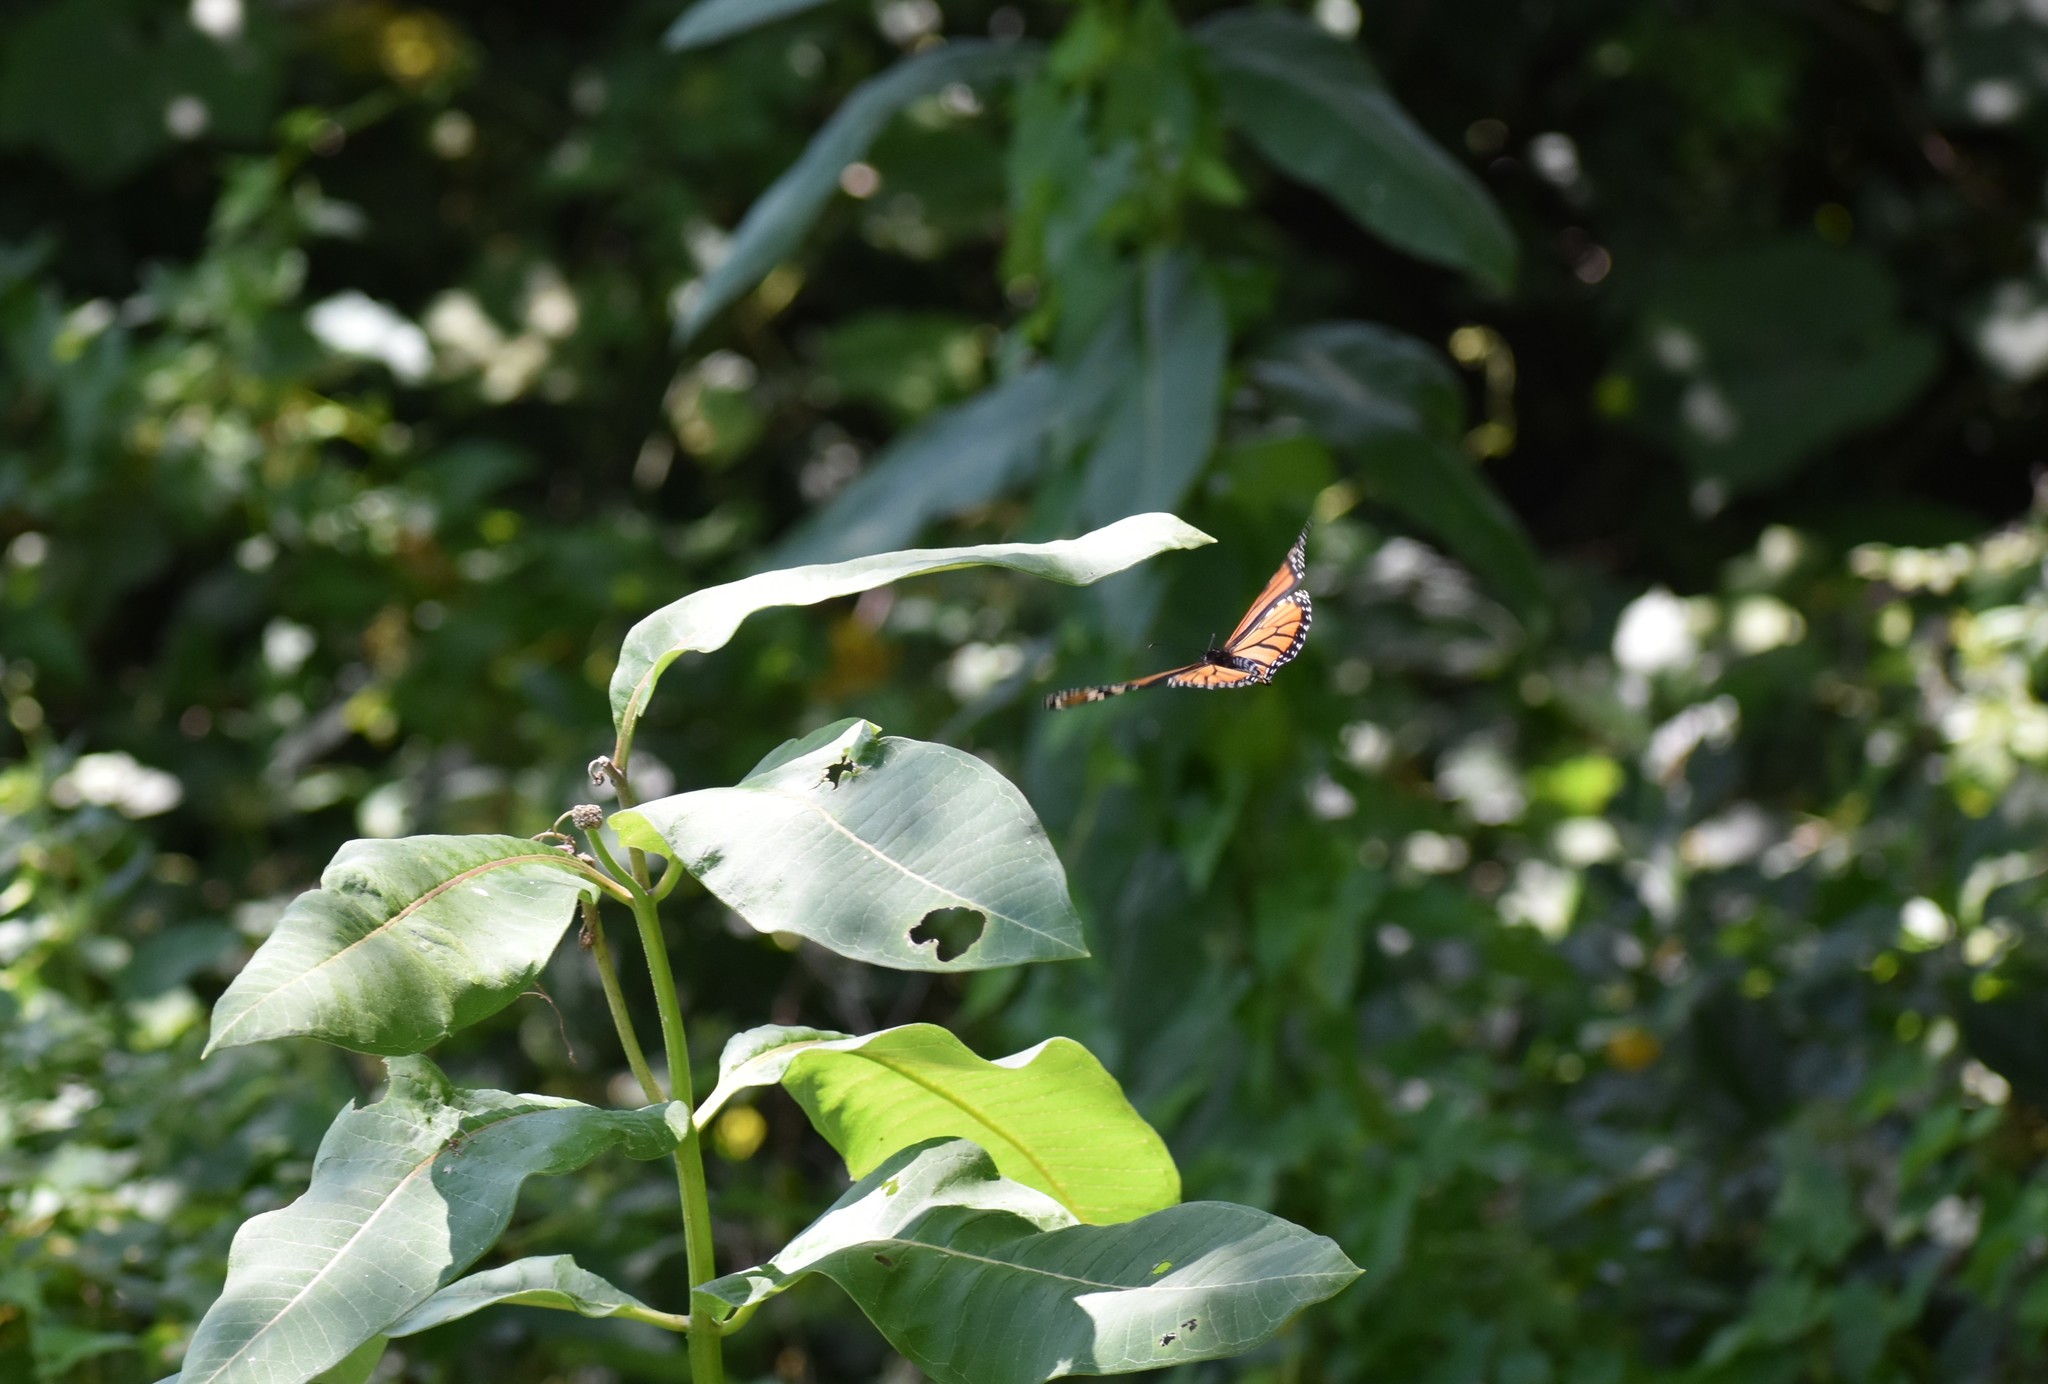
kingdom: Animalia
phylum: Arthropoda
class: Insecta
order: Lepidoptera
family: Nymphalidae
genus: Danaus
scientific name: Danaus plexippus
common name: Monarch
